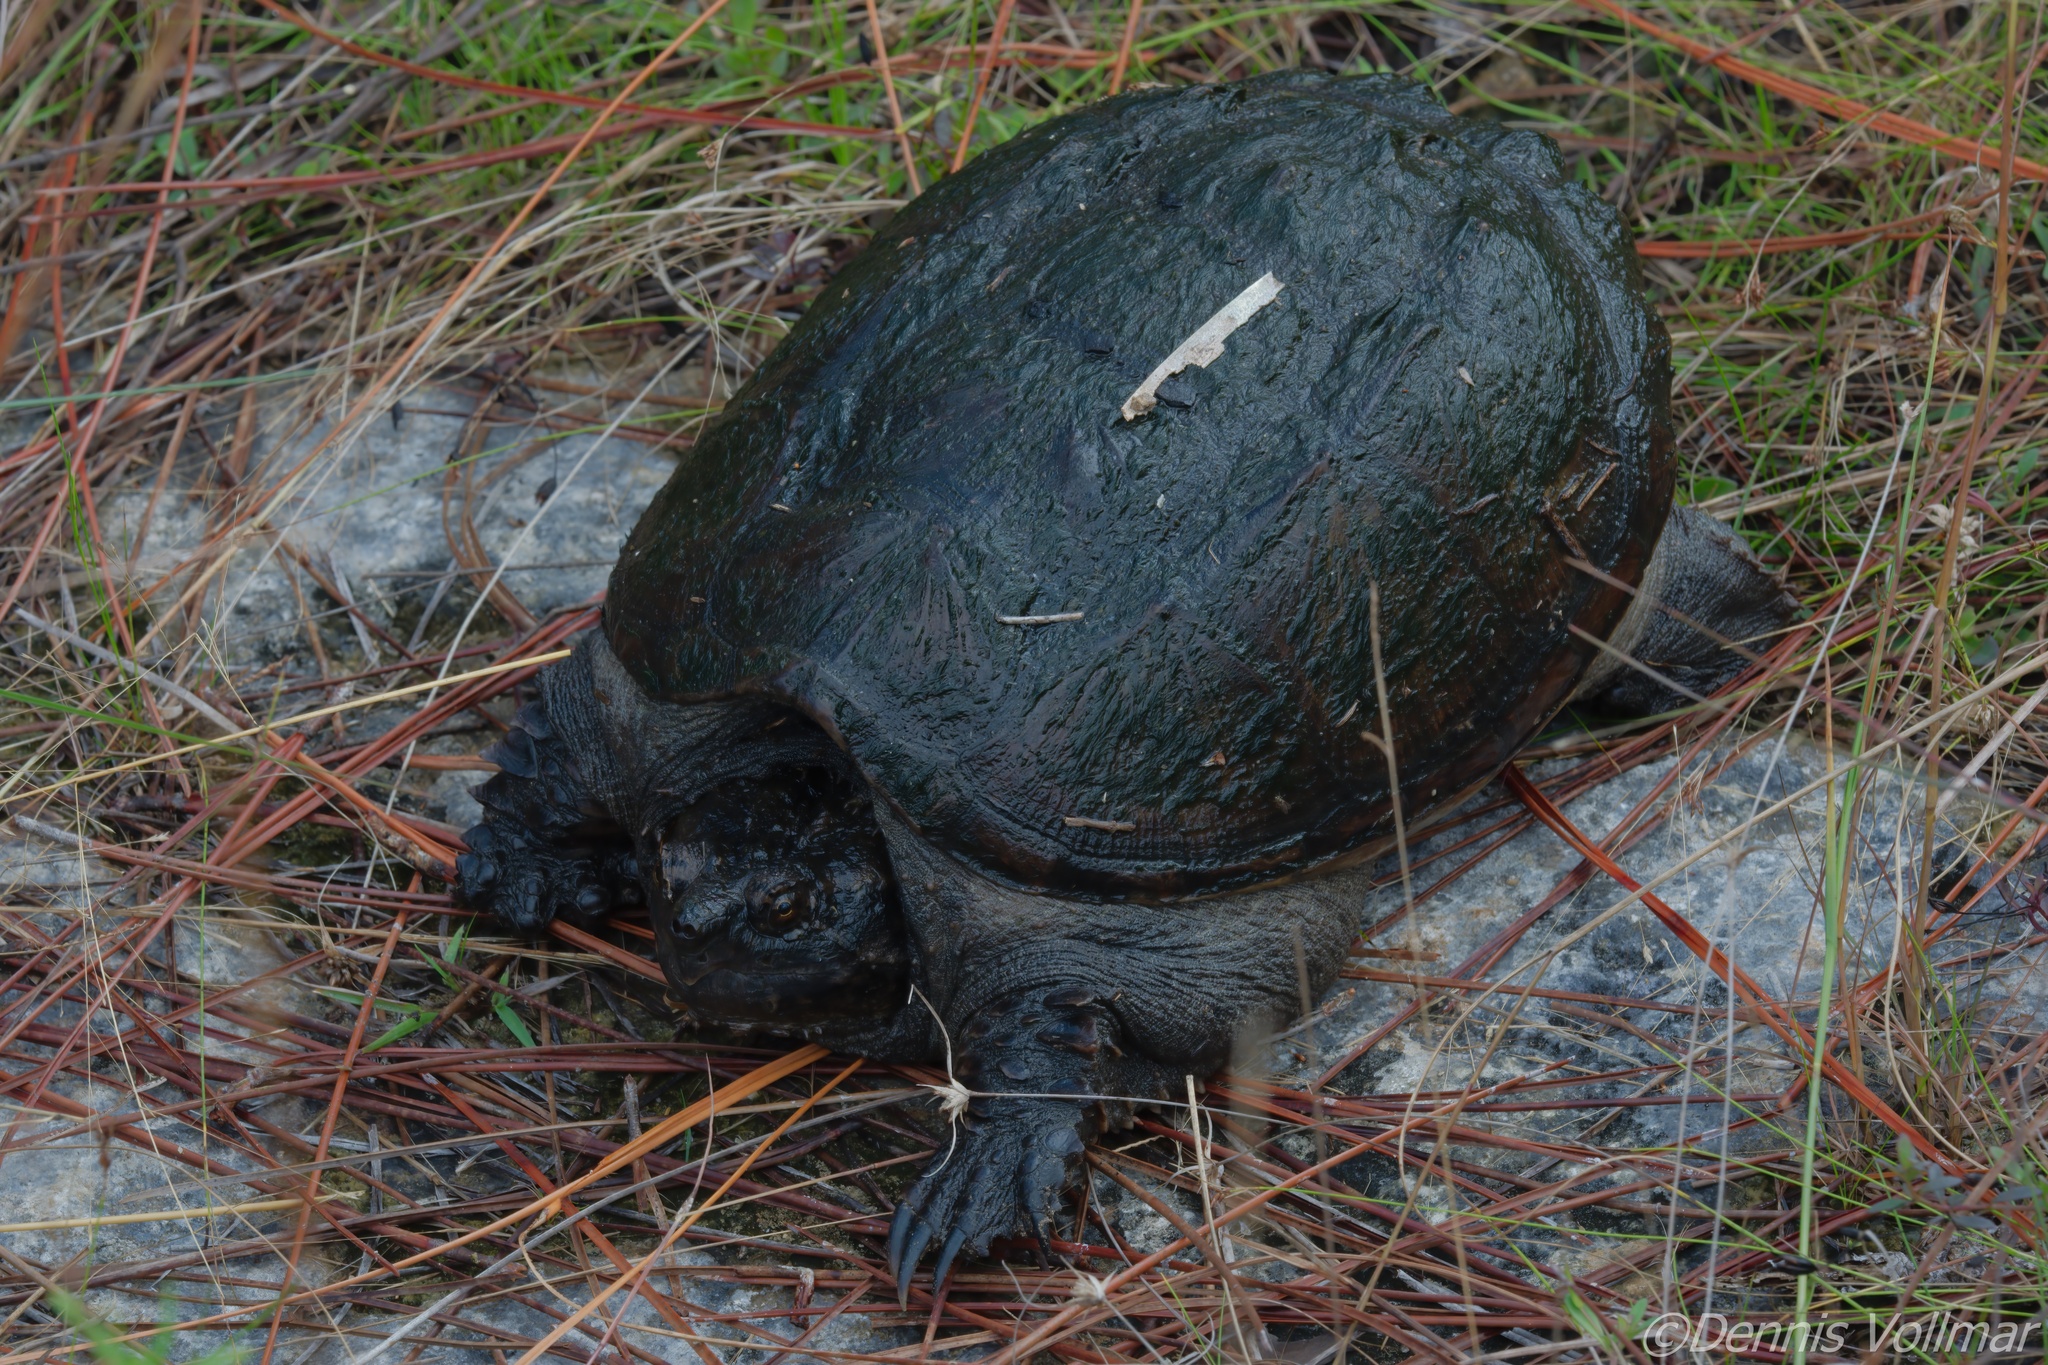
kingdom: Animalia
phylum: Chordata
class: Testudines
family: Chelydridae
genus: Chelydra
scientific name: Chelydra serpentina
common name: Common snapping turtle
